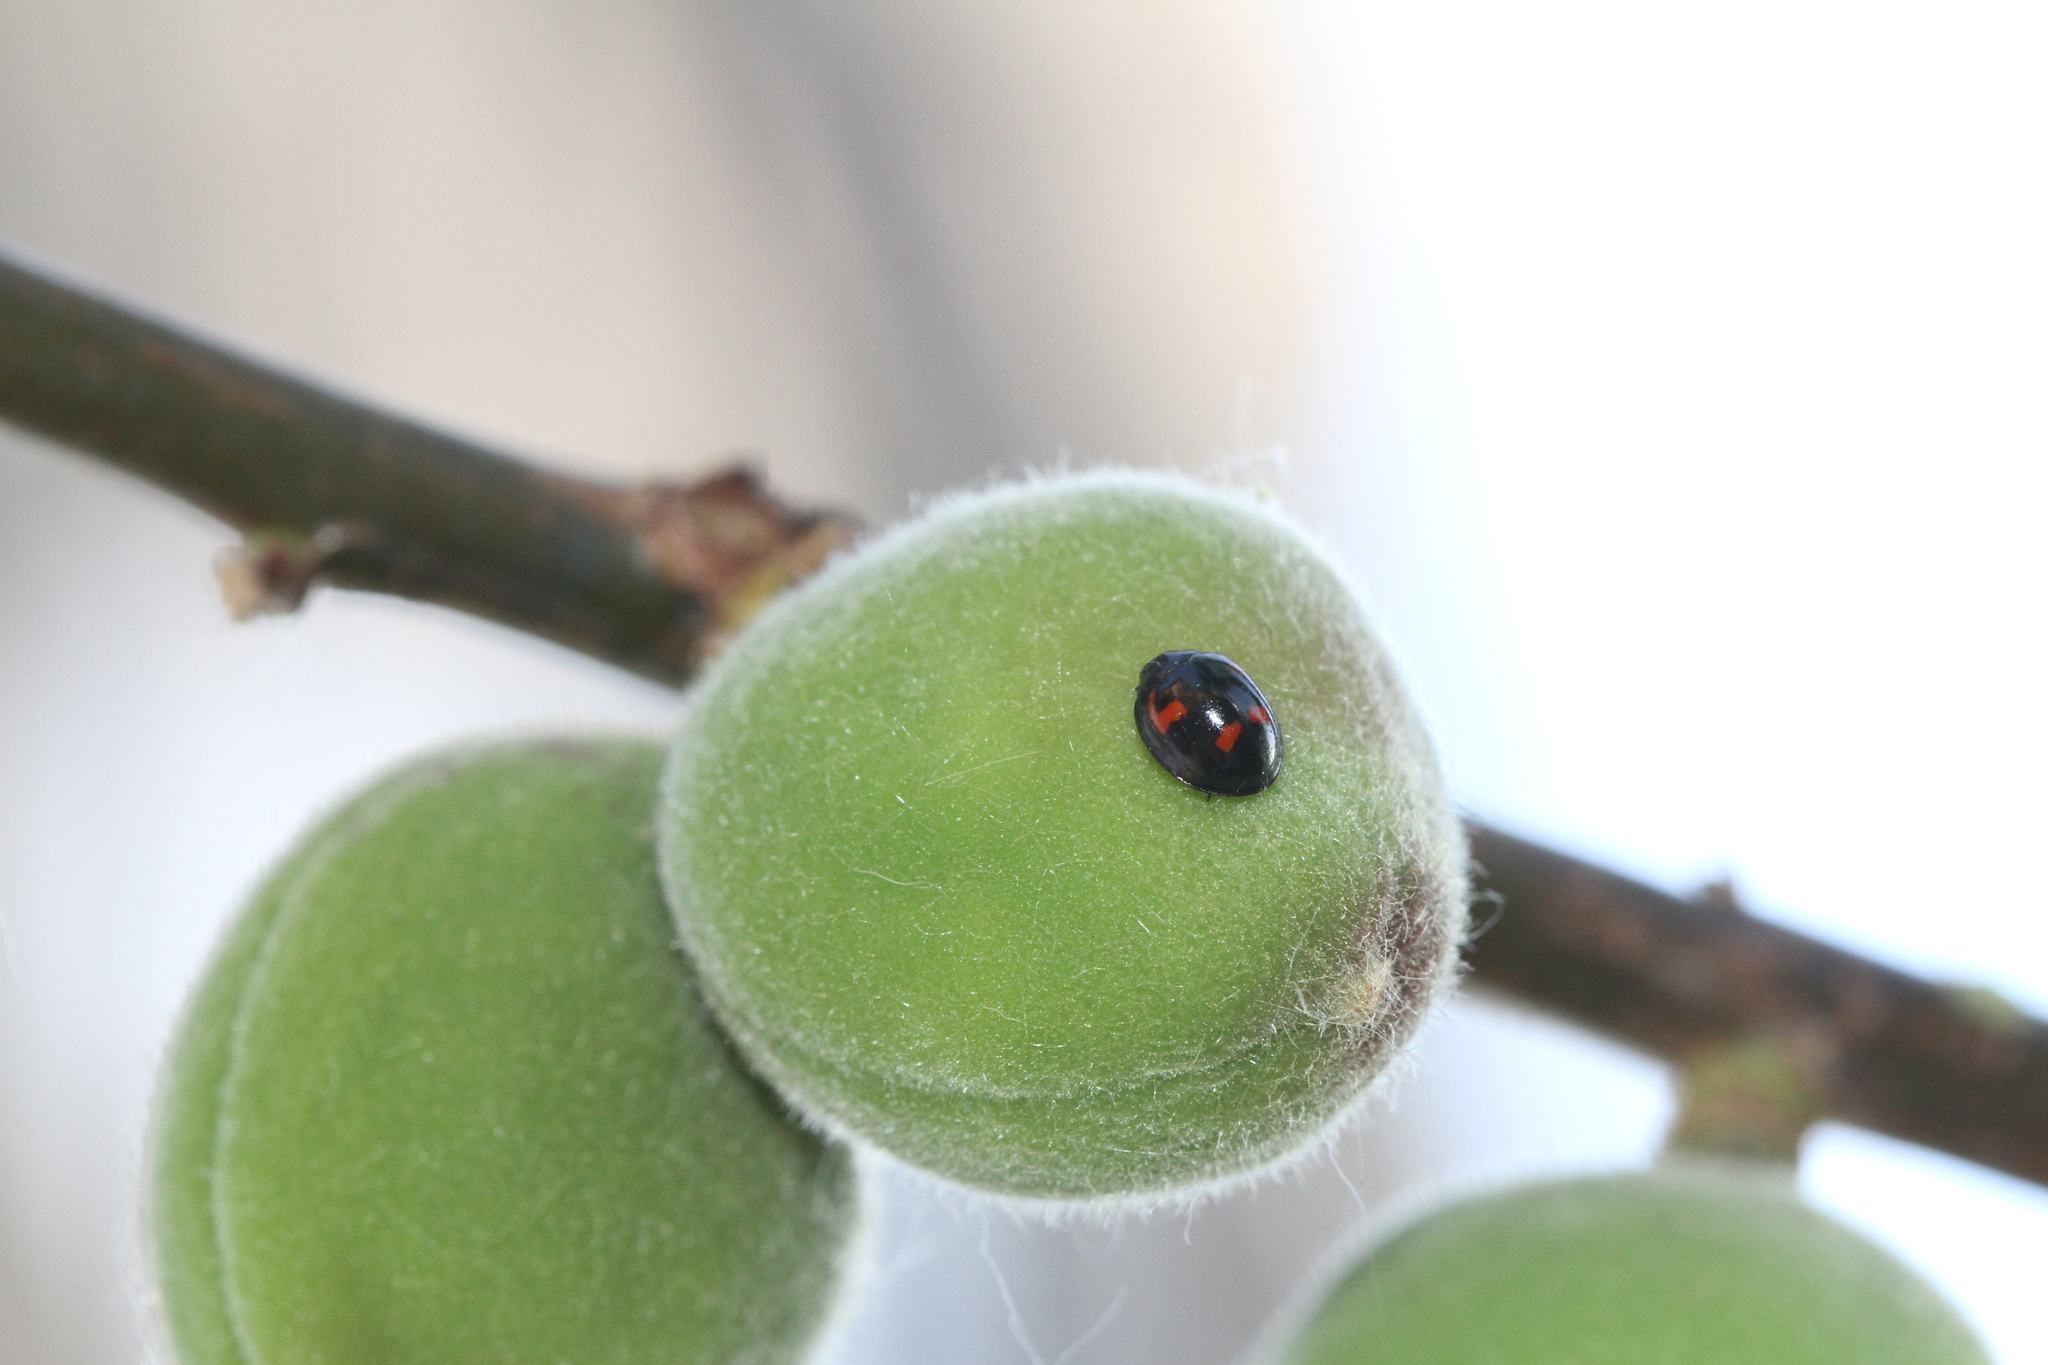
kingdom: Animalia
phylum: Arthropoda
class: Insecta
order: Coleoptera
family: Coccinellidae
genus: Brumus
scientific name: Brumus quadripustulatus
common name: Ladybird beetle
